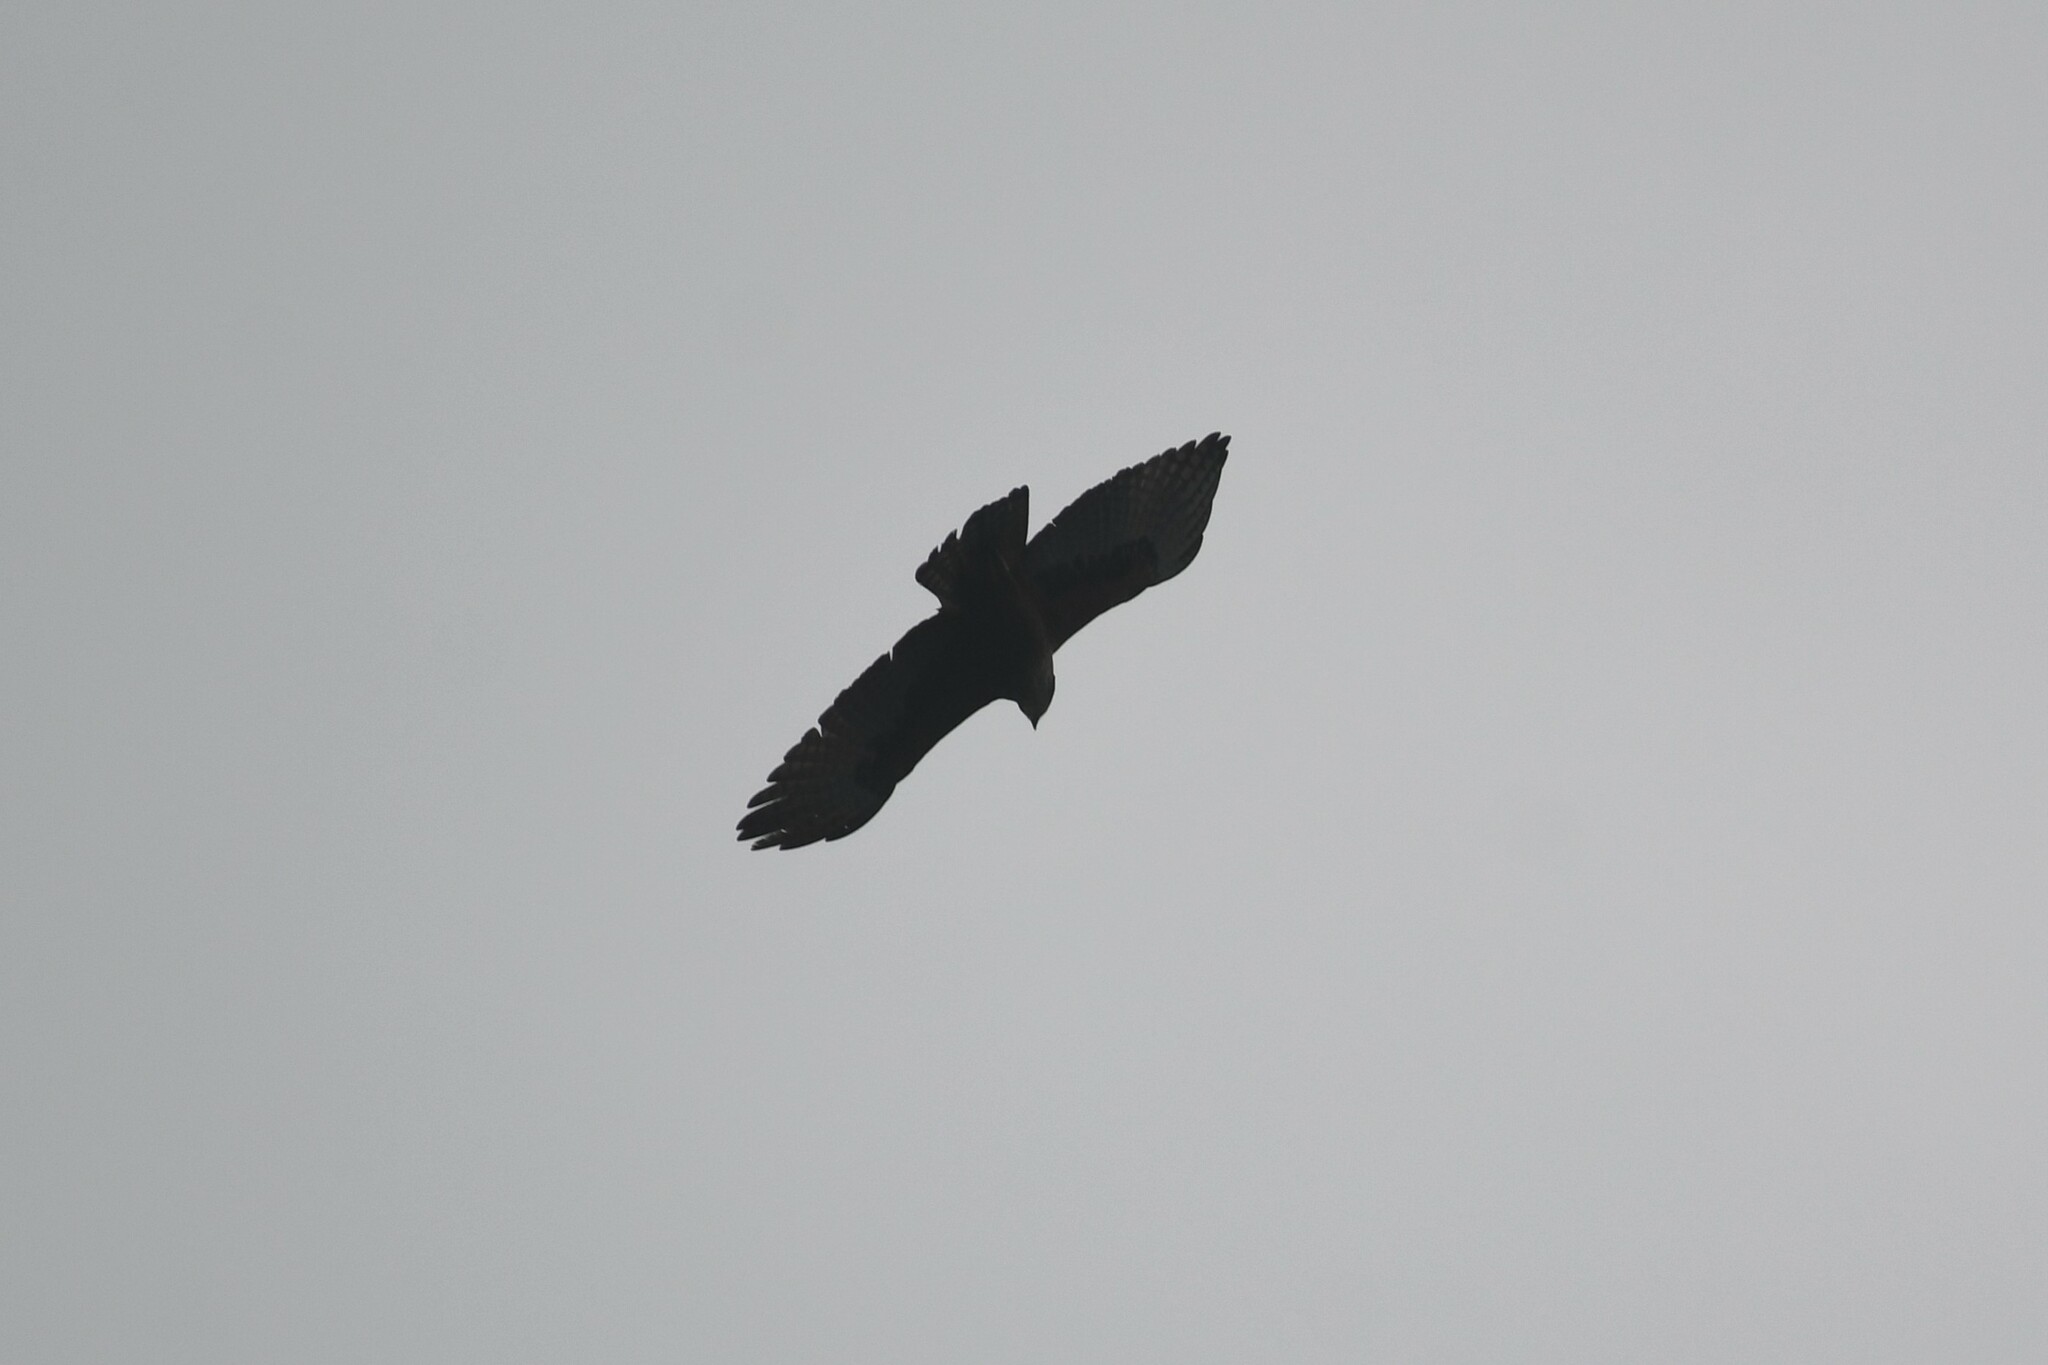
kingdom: Animalia
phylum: Chordata
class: Aves
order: Accipitriformes
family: Accipitridae
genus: Lophotriorchis
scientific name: Lophotriorchis kienerii
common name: Rufous-bellied eagle
